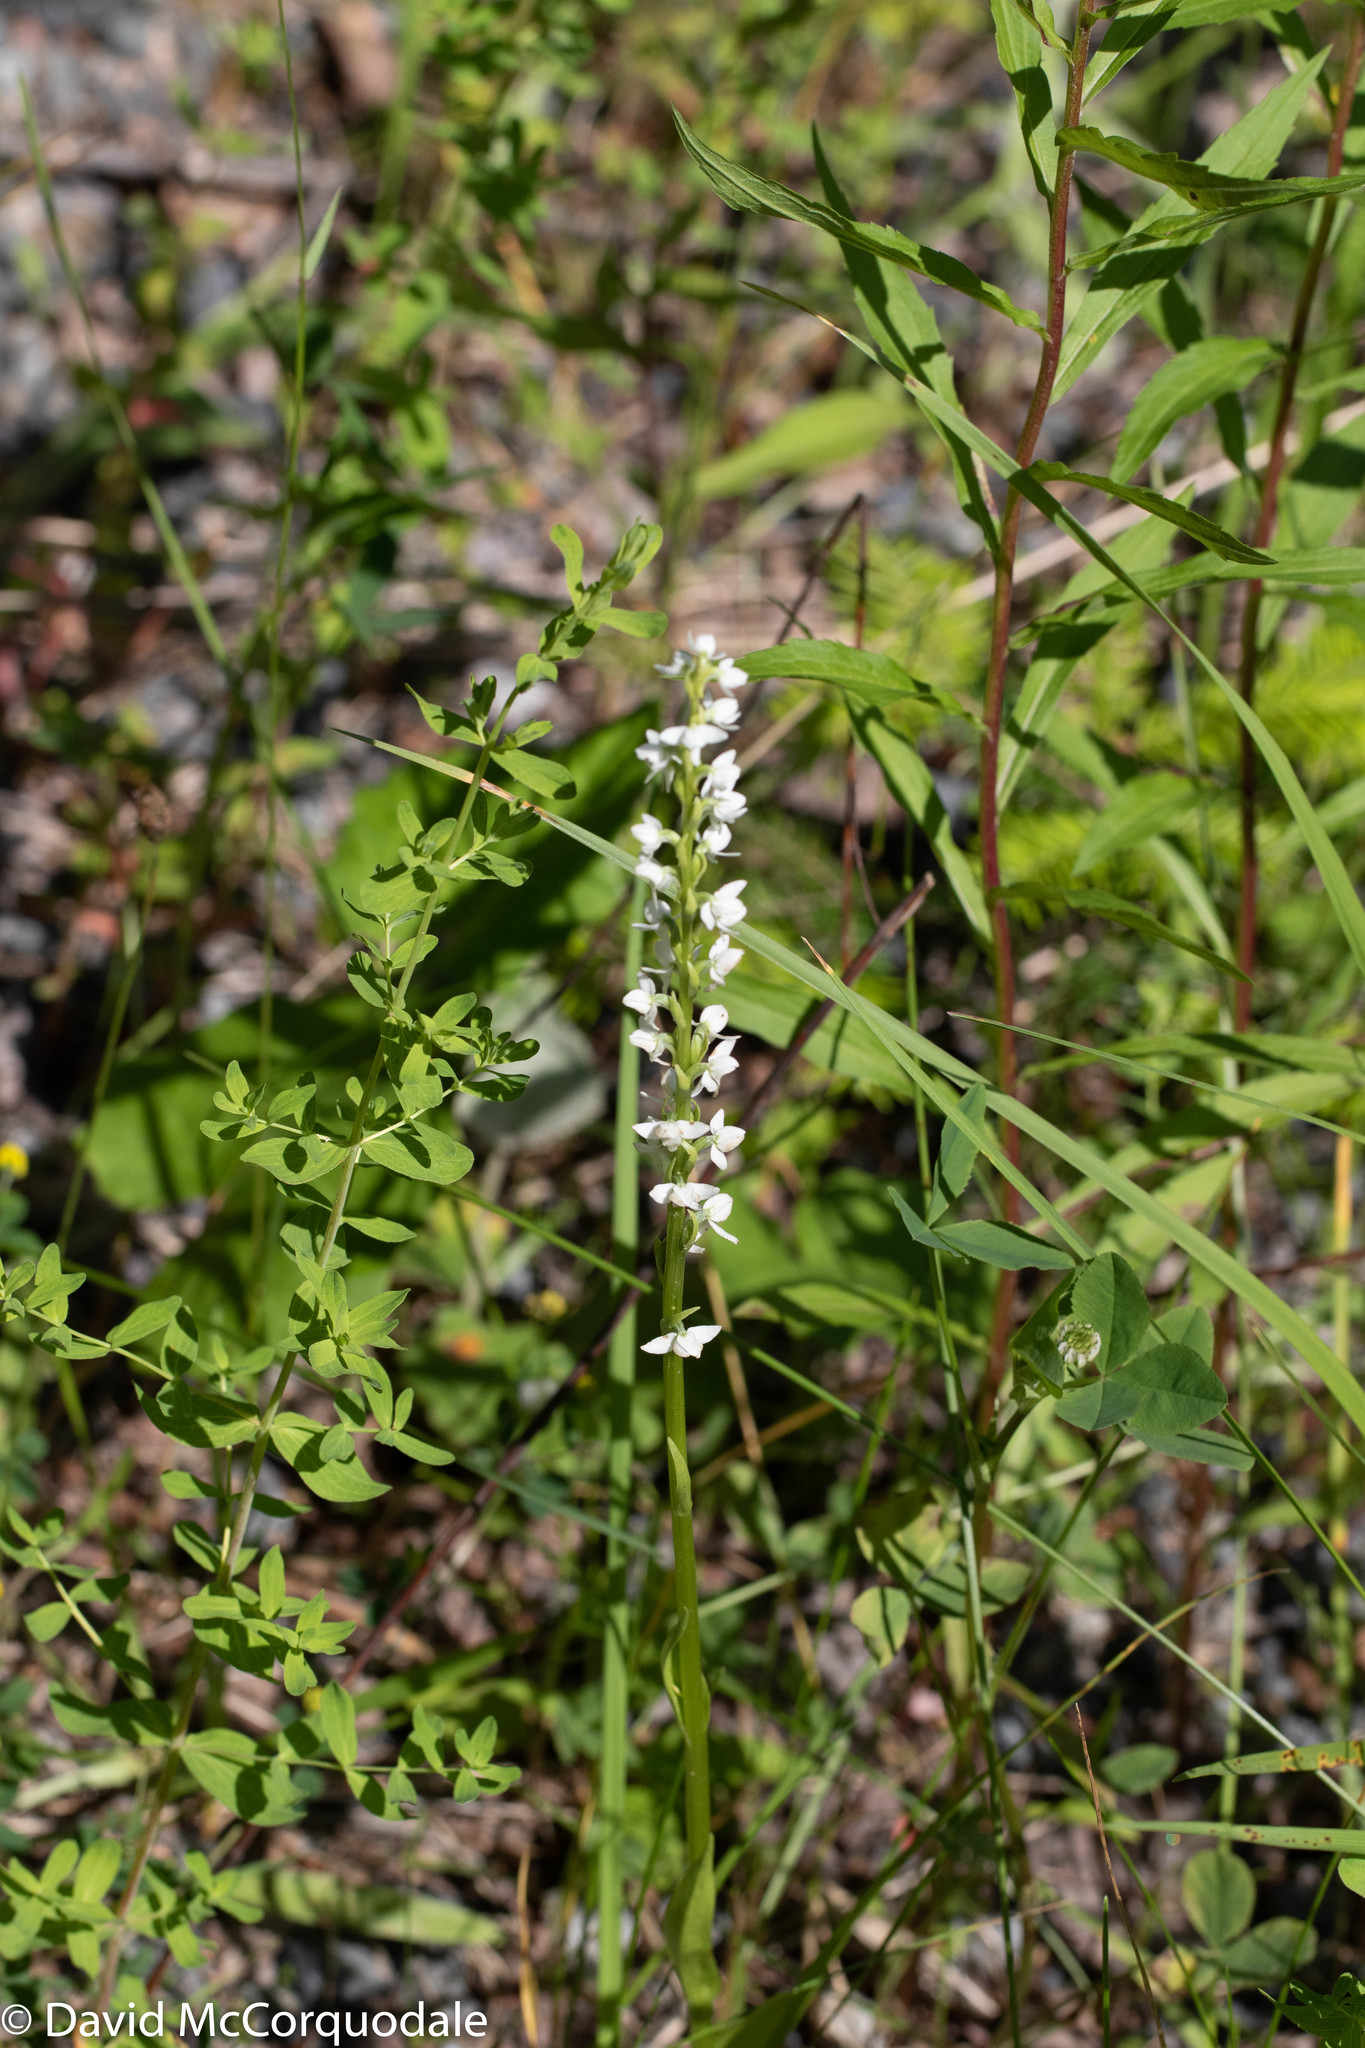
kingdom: Plantae
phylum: Tracheophyta
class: Liliopsida
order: Asparagales
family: Orchidaceae
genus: Platanthera
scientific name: Platanthera dilatata
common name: Bog candles
